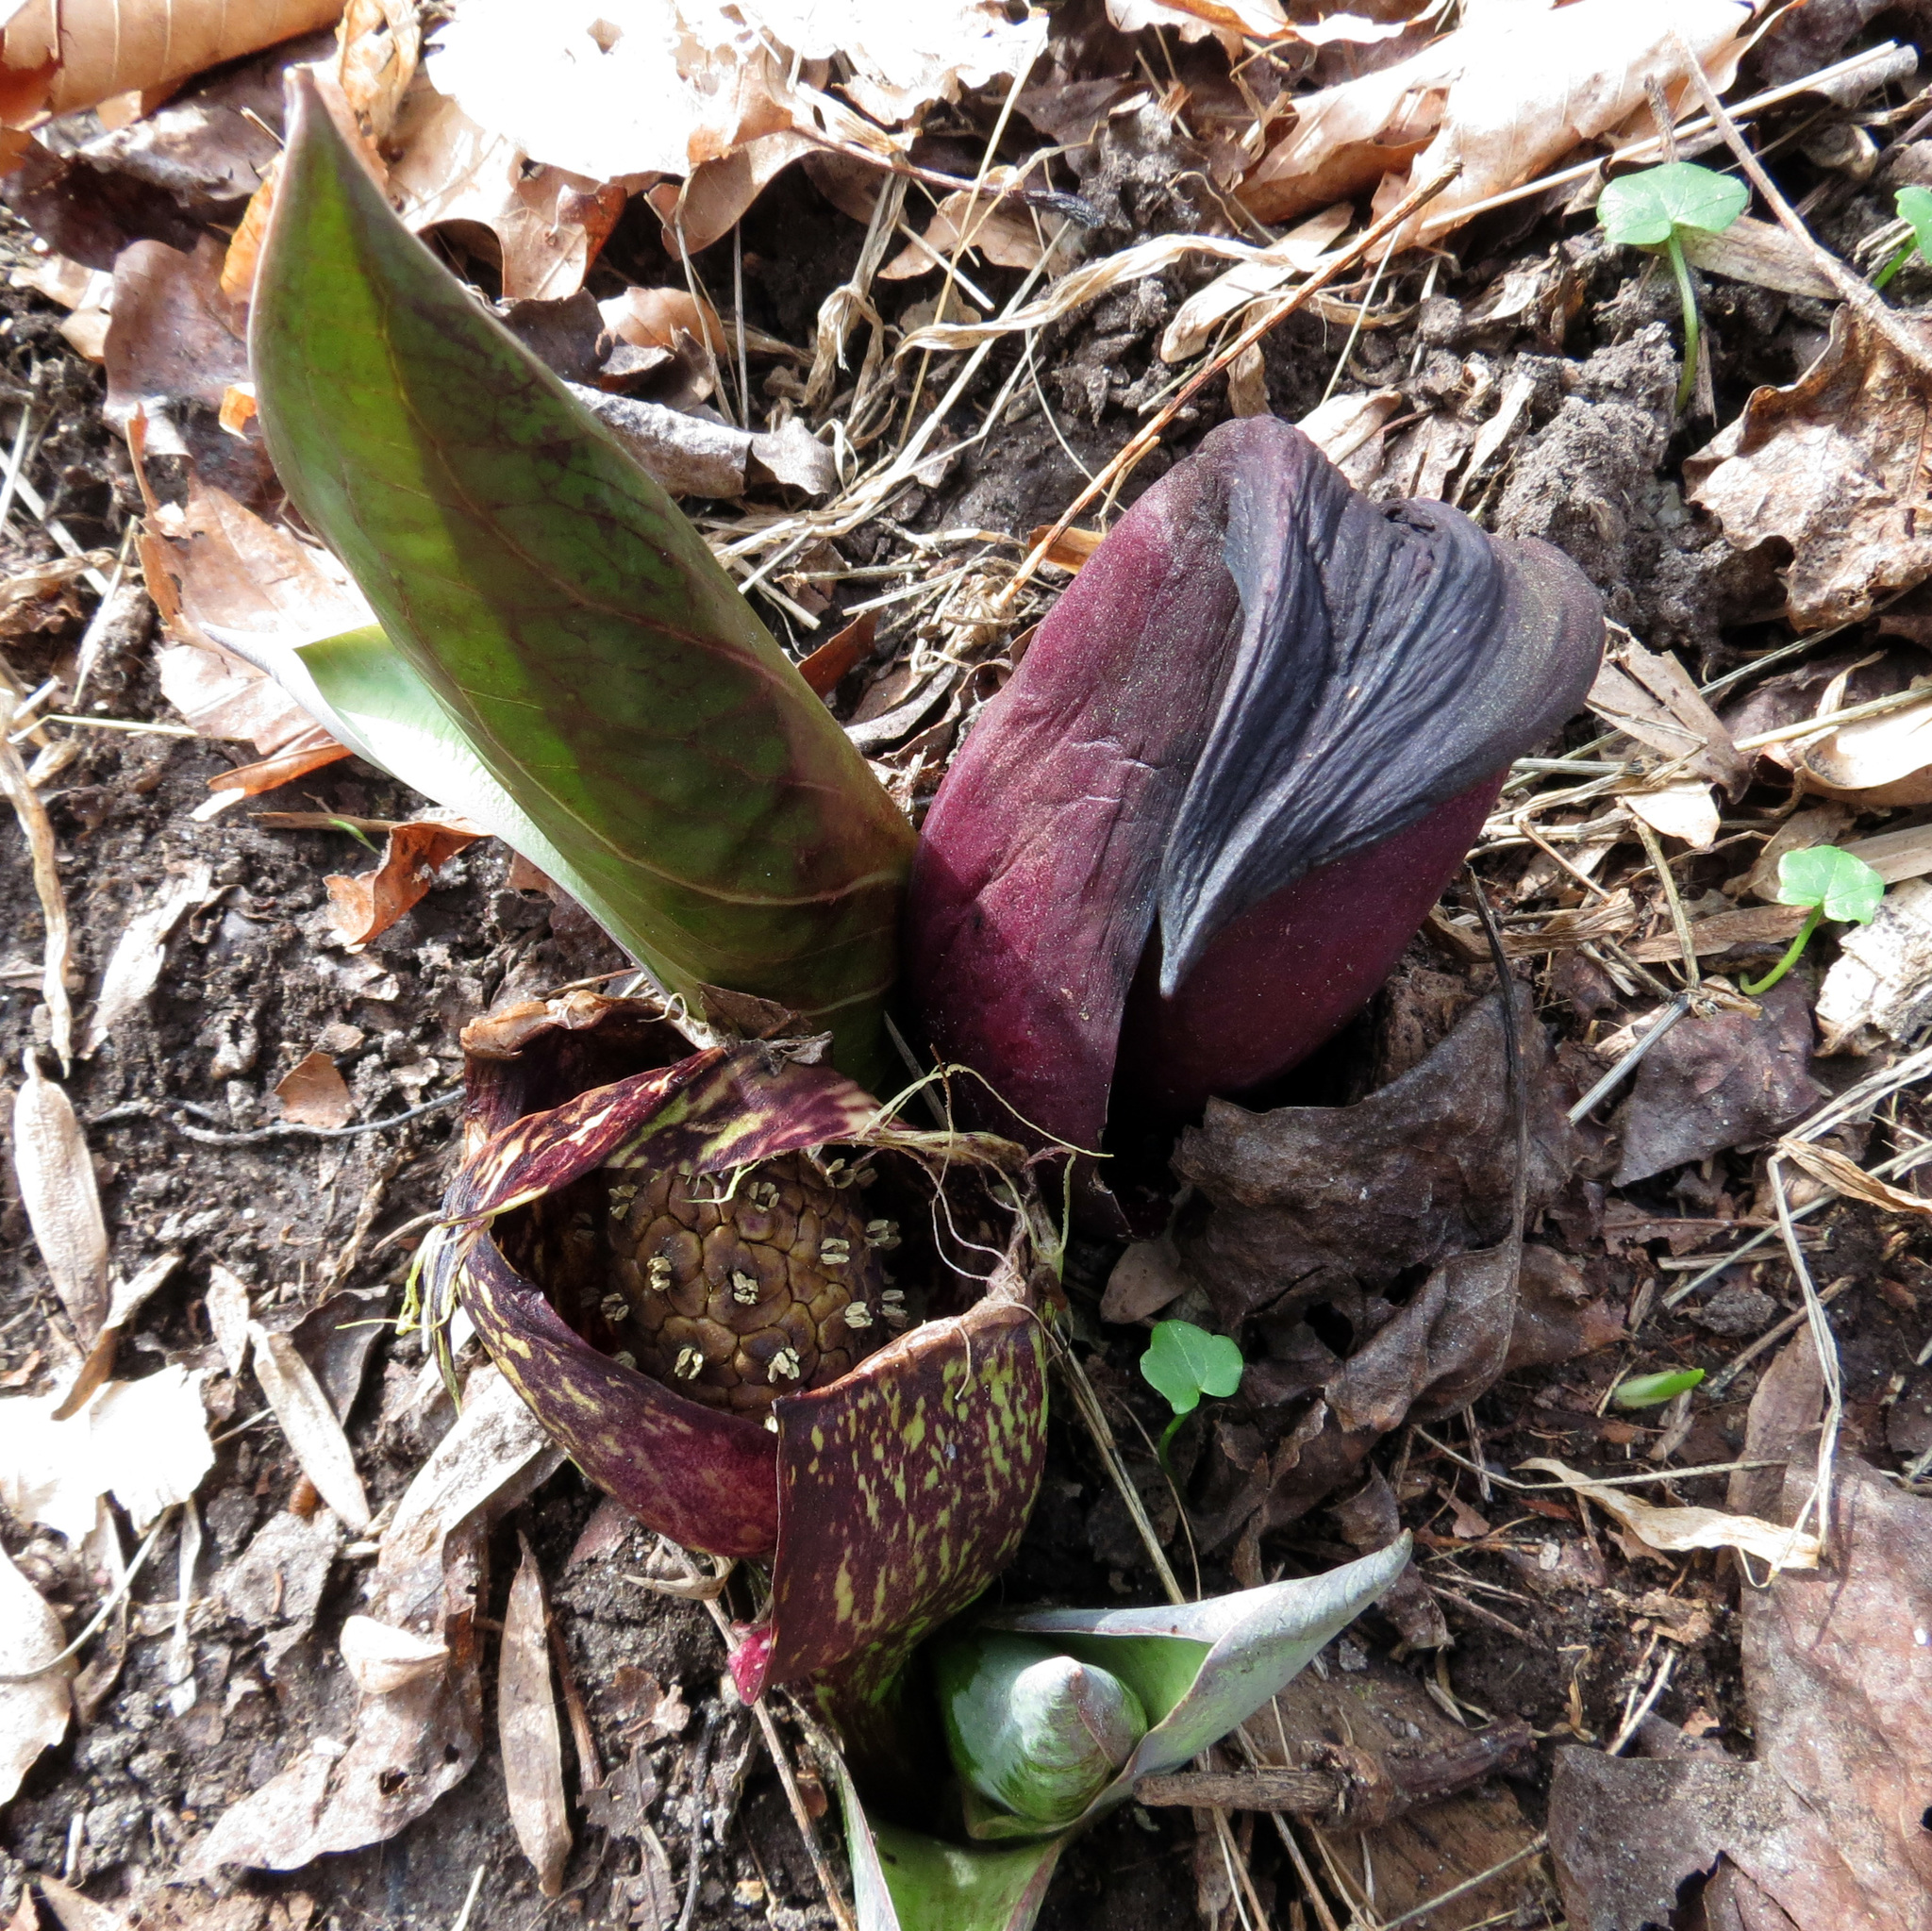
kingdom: Plantae
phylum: Tracheophyta
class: Liliopsida
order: Alismatales
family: Araceae
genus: Symplocarpus
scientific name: Symplocarpus foetidus
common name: Eastern skunk cabbage
